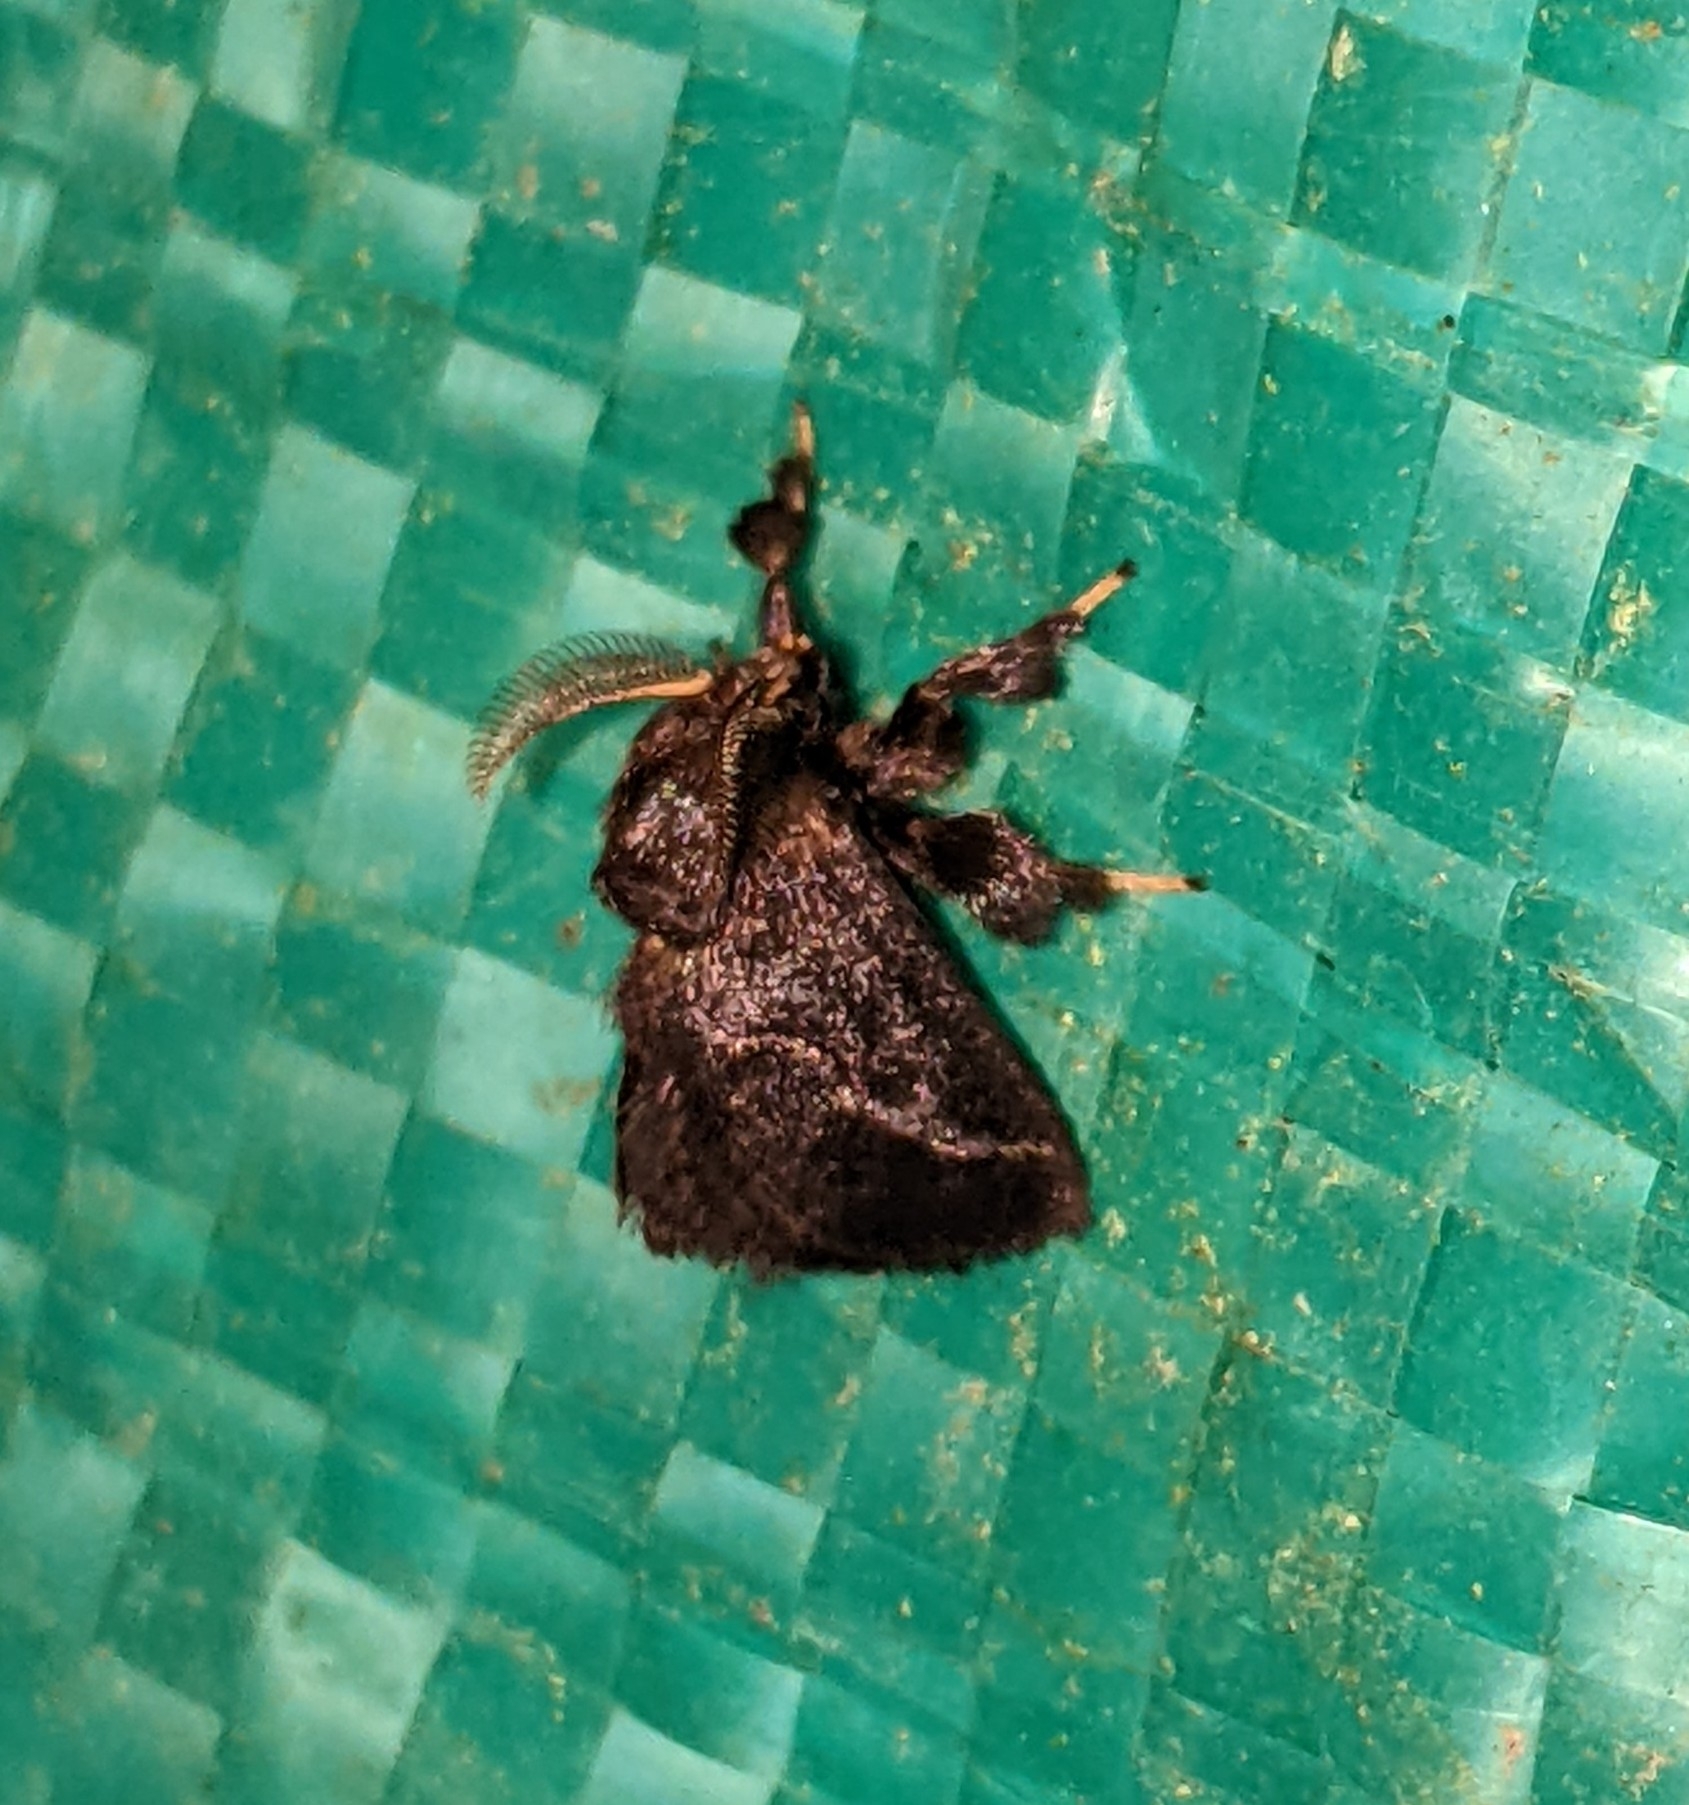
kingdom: Animalia
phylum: Arthropoda
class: Insecta
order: Lepidoptera
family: Limacodidae
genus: Epiperola
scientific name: Epiperola flexilinea
